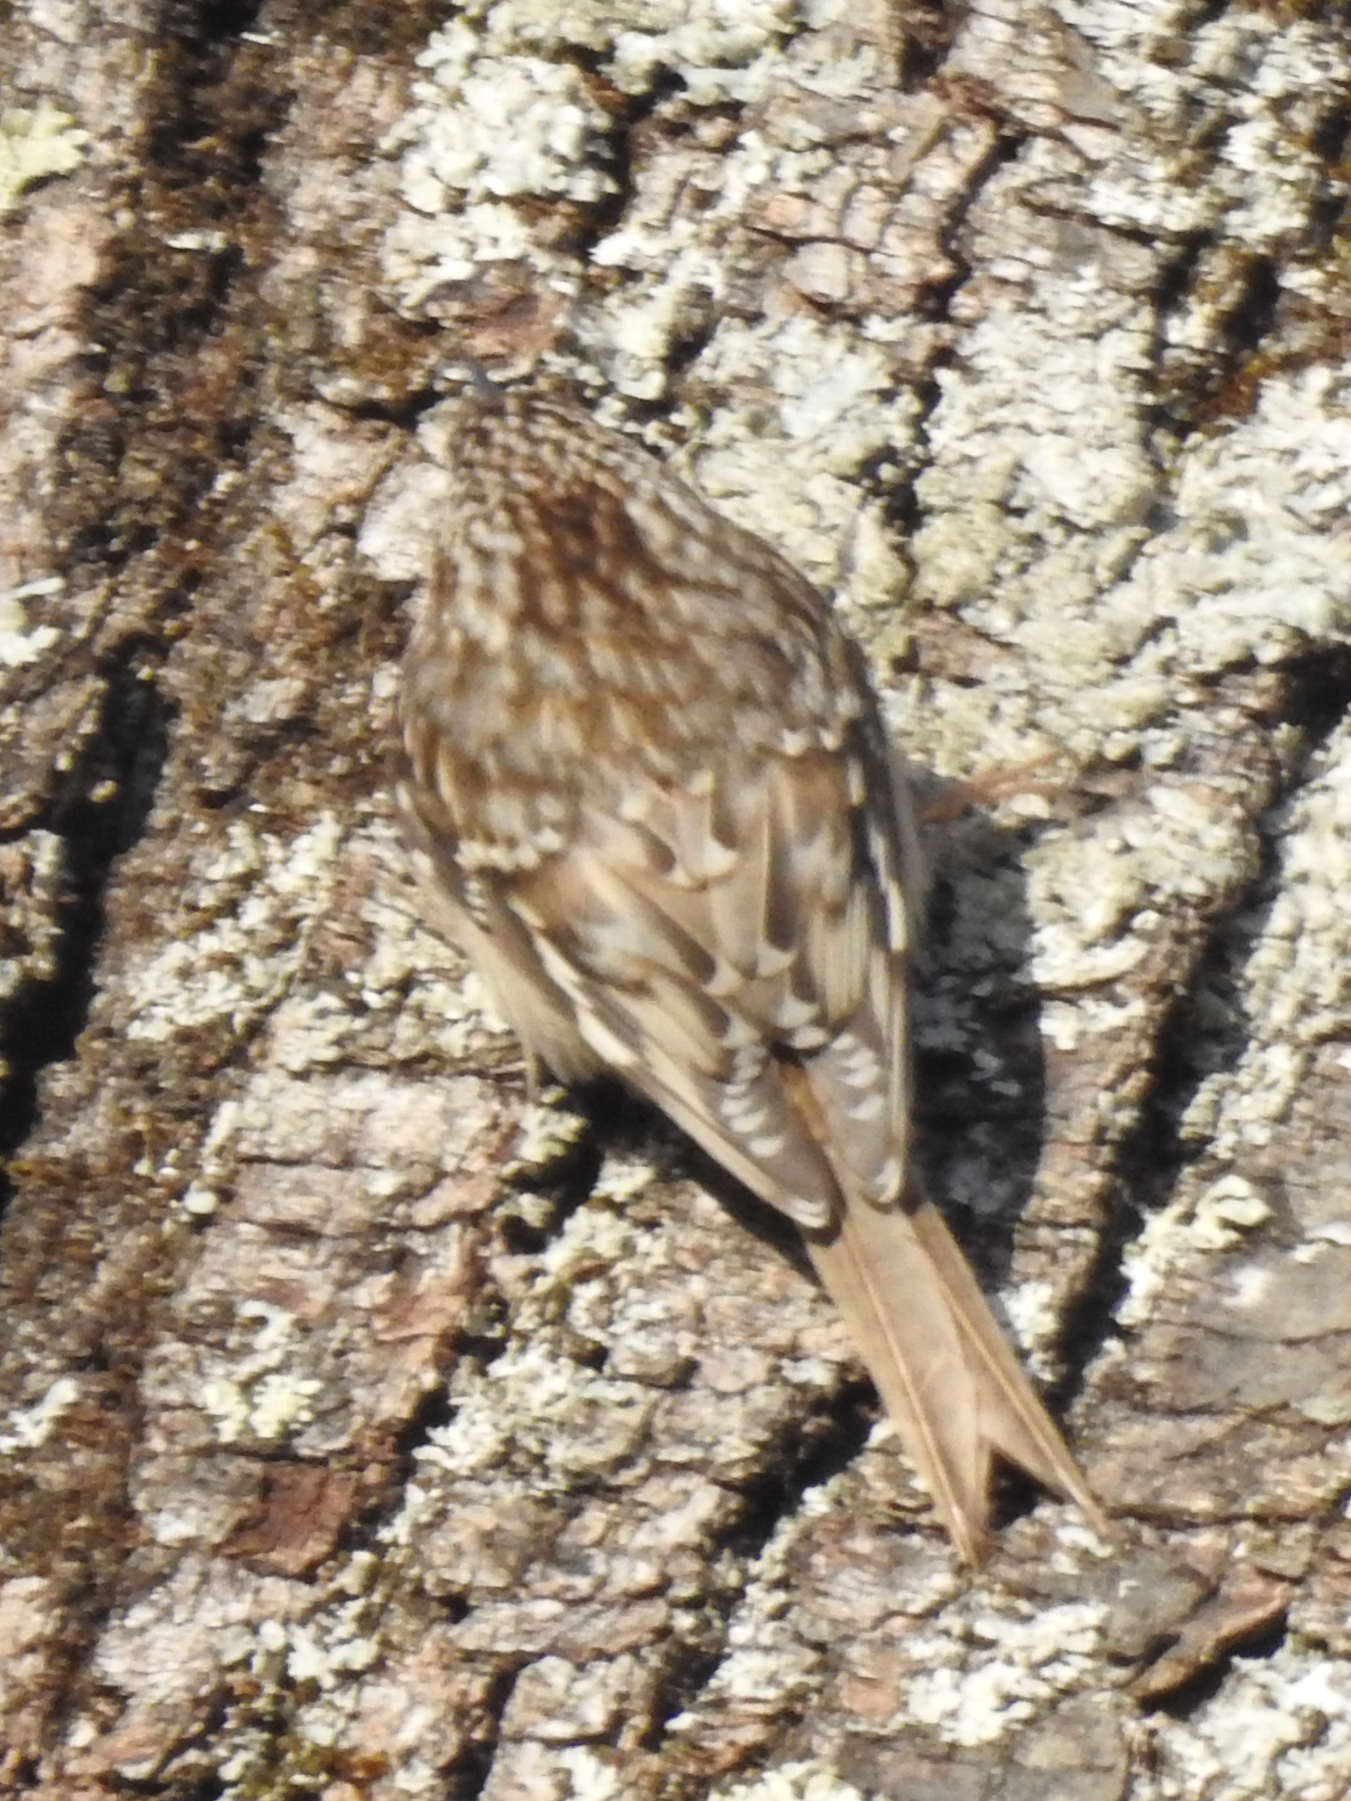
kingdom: Animalia
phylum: Chordata
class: Aves
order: Passeriformes
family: Certhiidae
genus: Certhia
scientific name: Certhia americana
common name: Brown creeper
